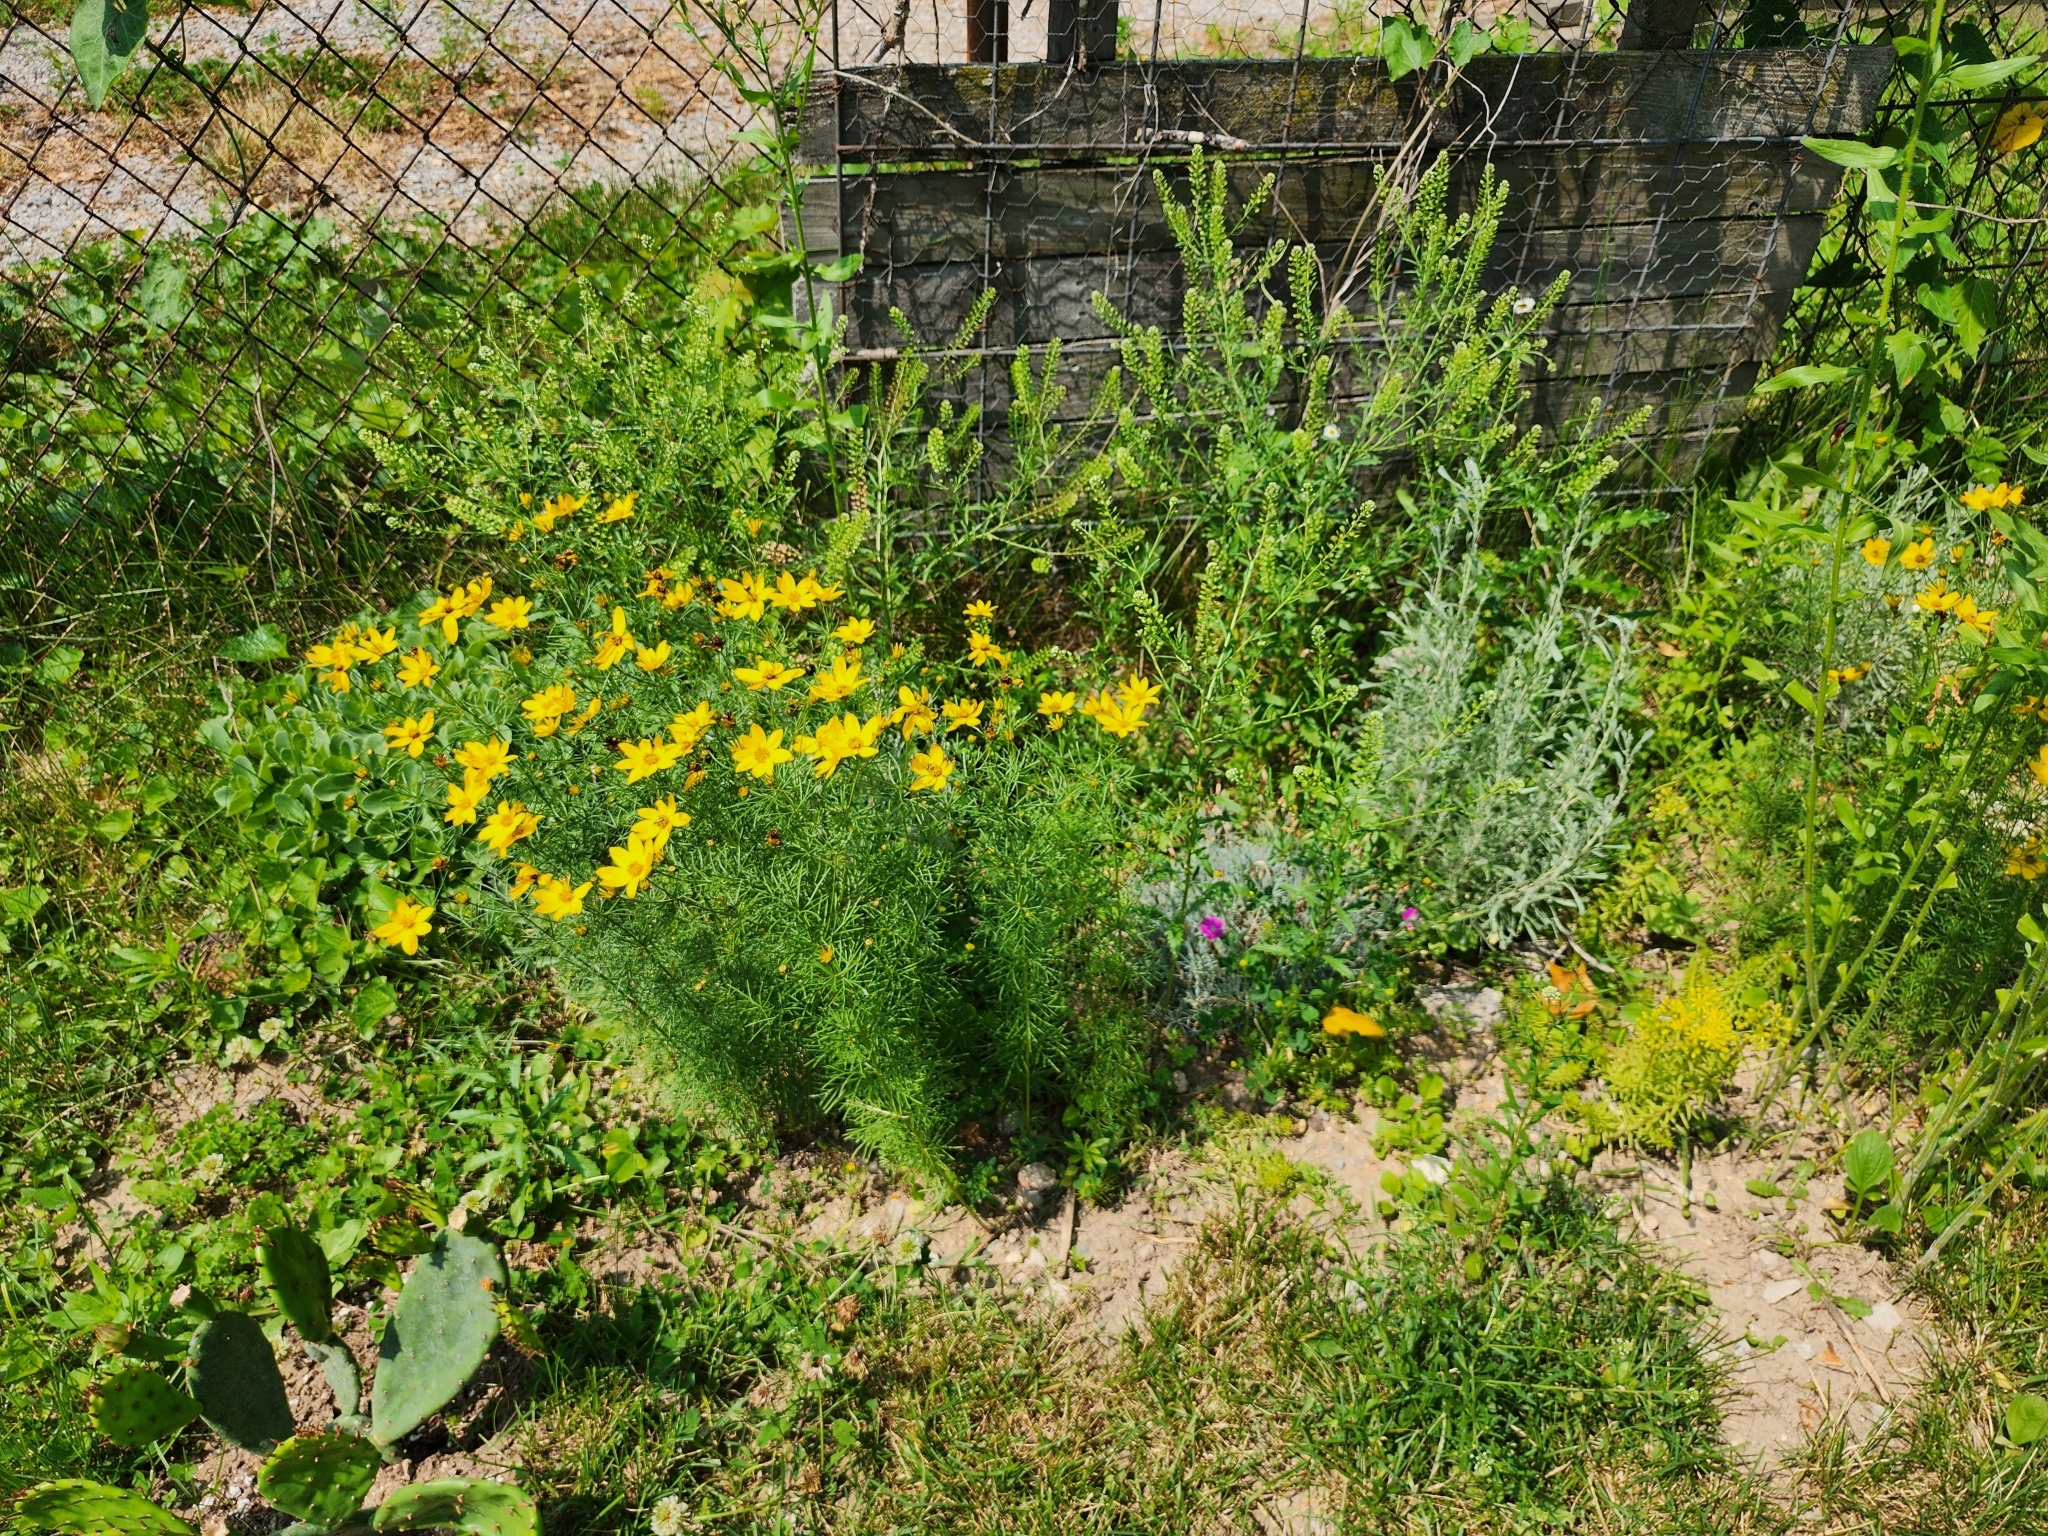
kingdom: Plantae
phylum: Tracheophyta
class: Magnoliopsida
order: Asterales
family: Asteraceae
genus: Coreopsis
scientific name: Coreopsis verticillata
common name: Whorled tickseed
